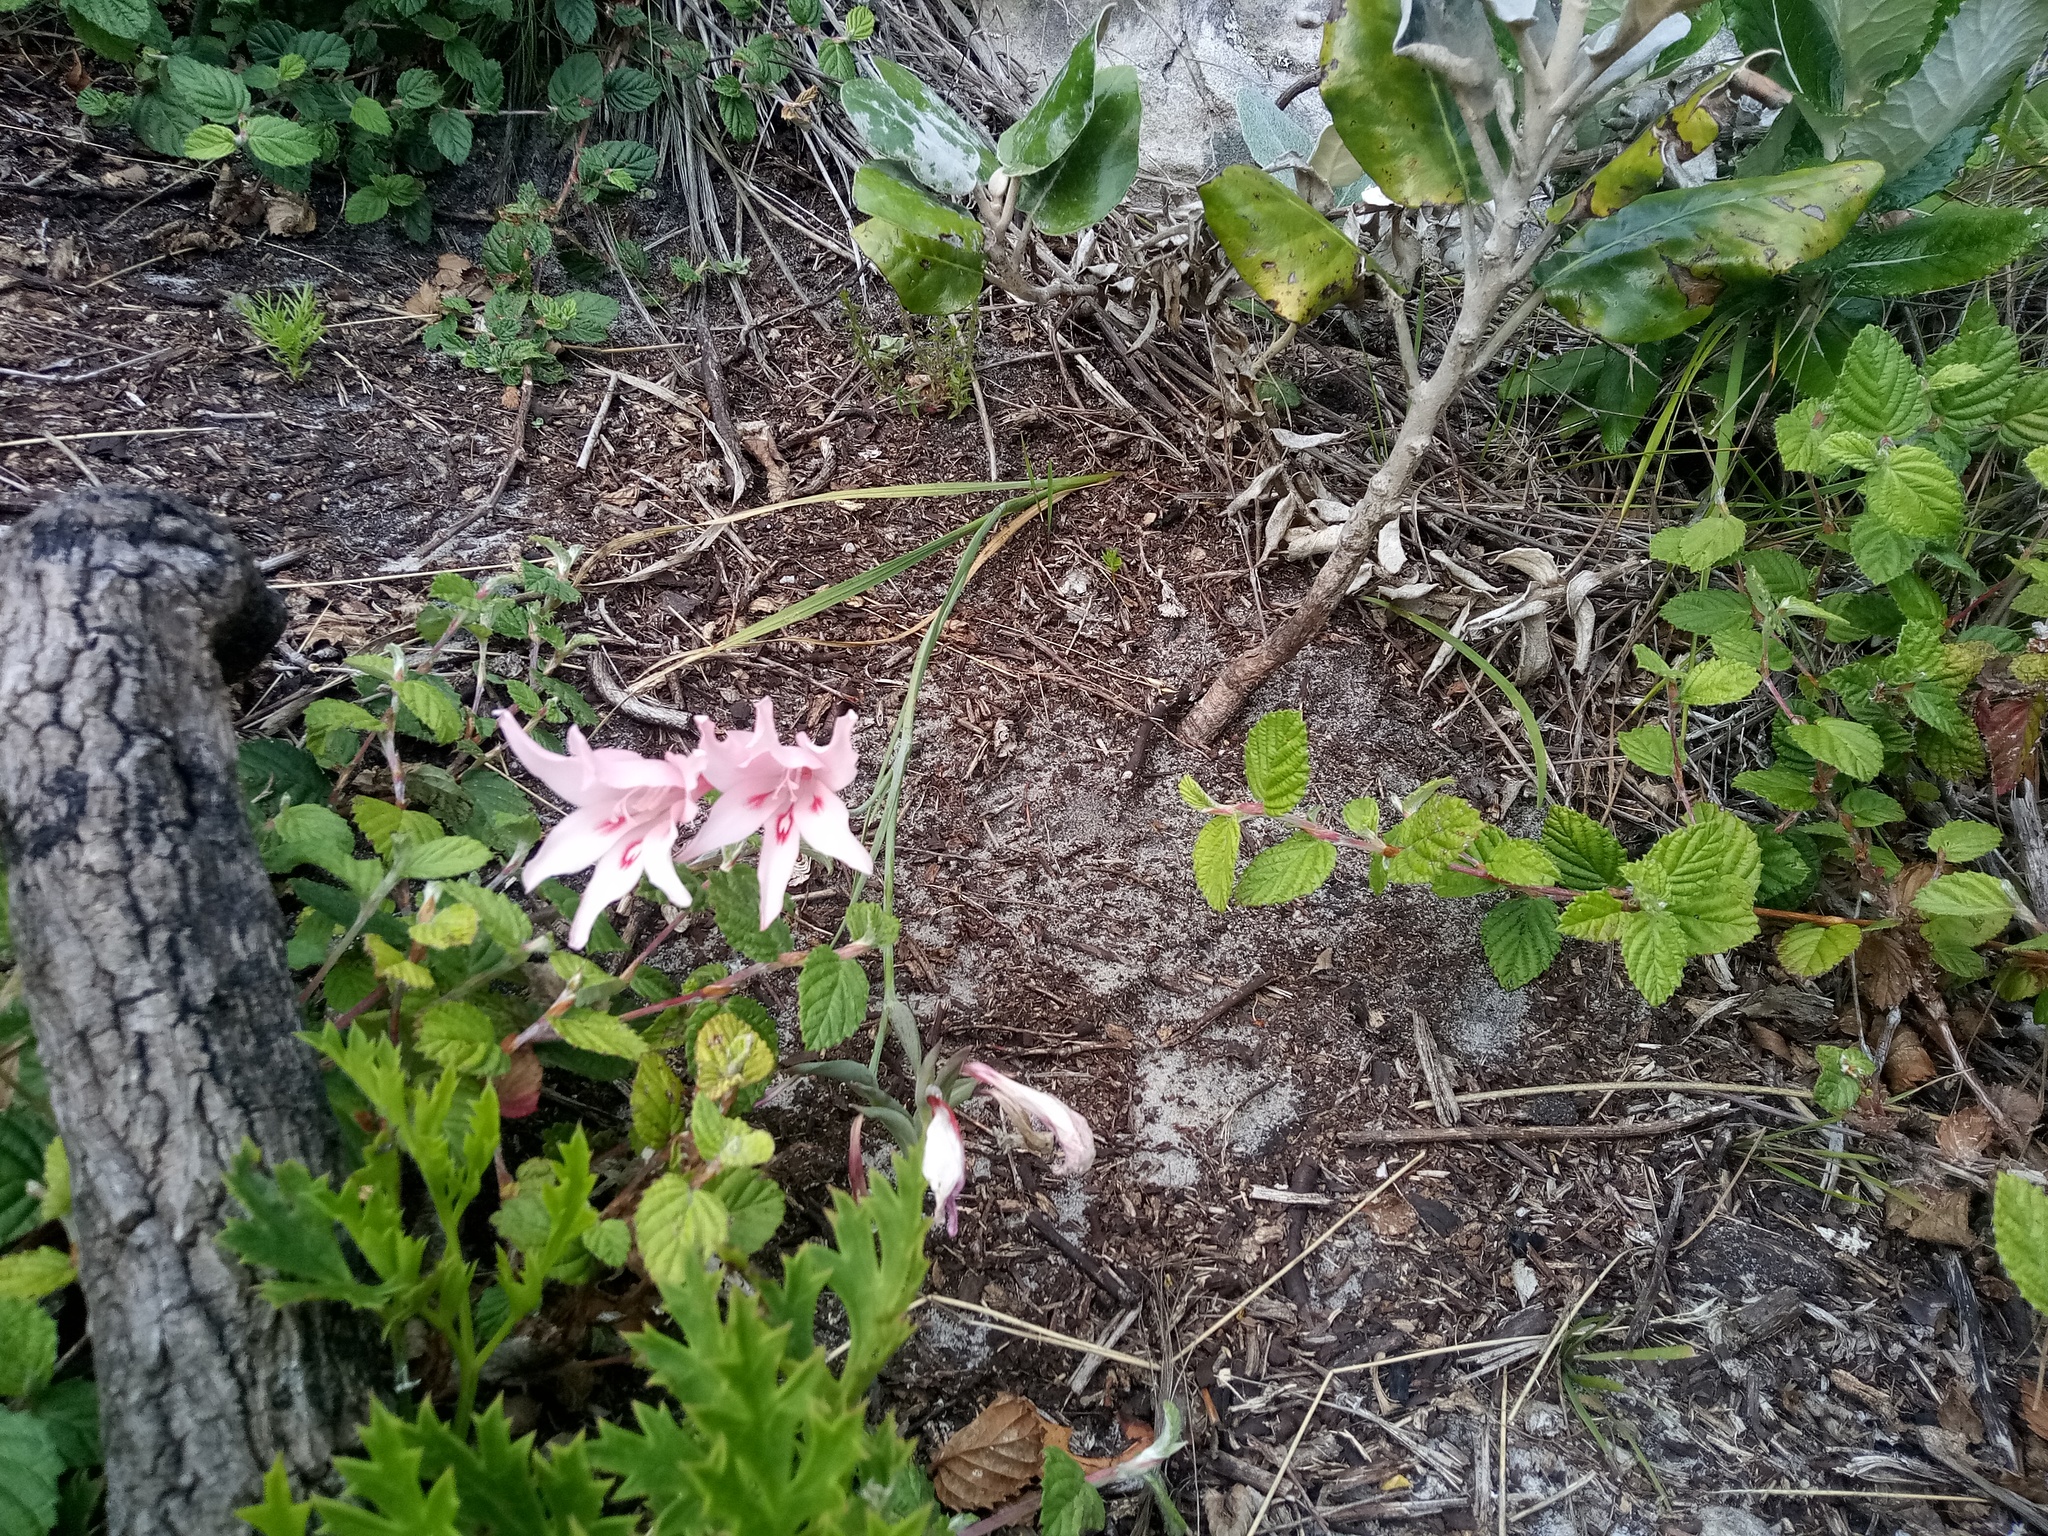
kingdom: Plantae
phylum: Tracheophyta
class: Liliopsida
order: Asparagales
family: Iridaceae
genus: Gladiolus
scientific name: Gladiolus pappei
